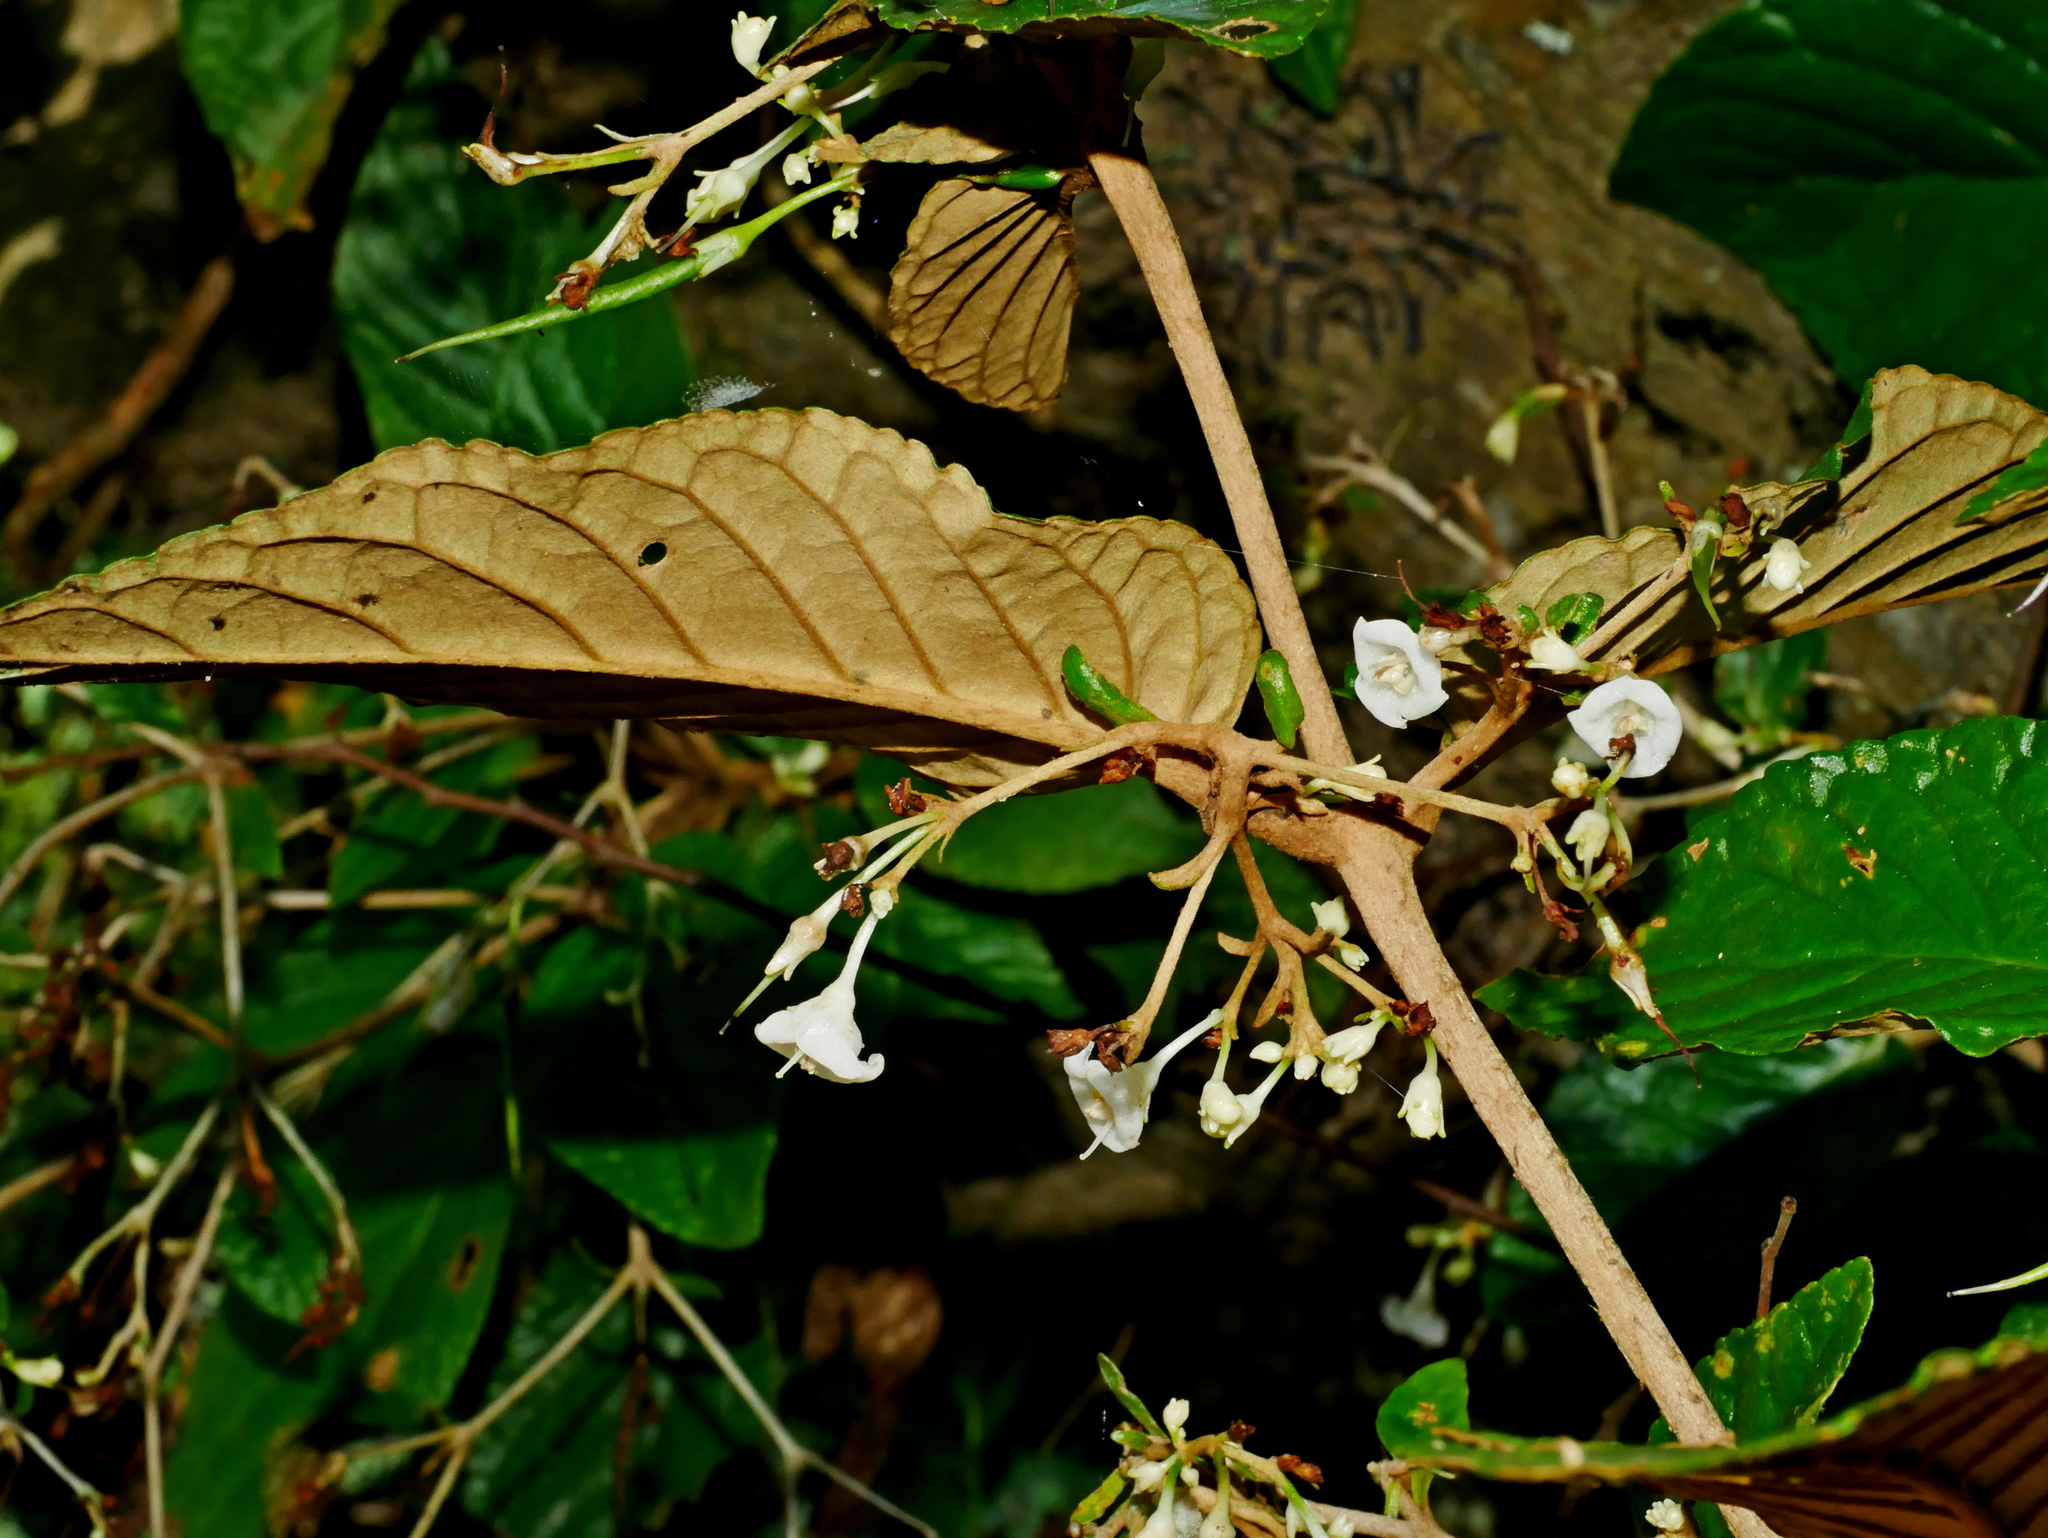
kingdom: Plantae
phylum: Tracheophyta
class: Magnoliopsida
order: Lamiales
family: Gesneriaceae
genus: Paraboea
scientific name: Paraboea swinhoei
